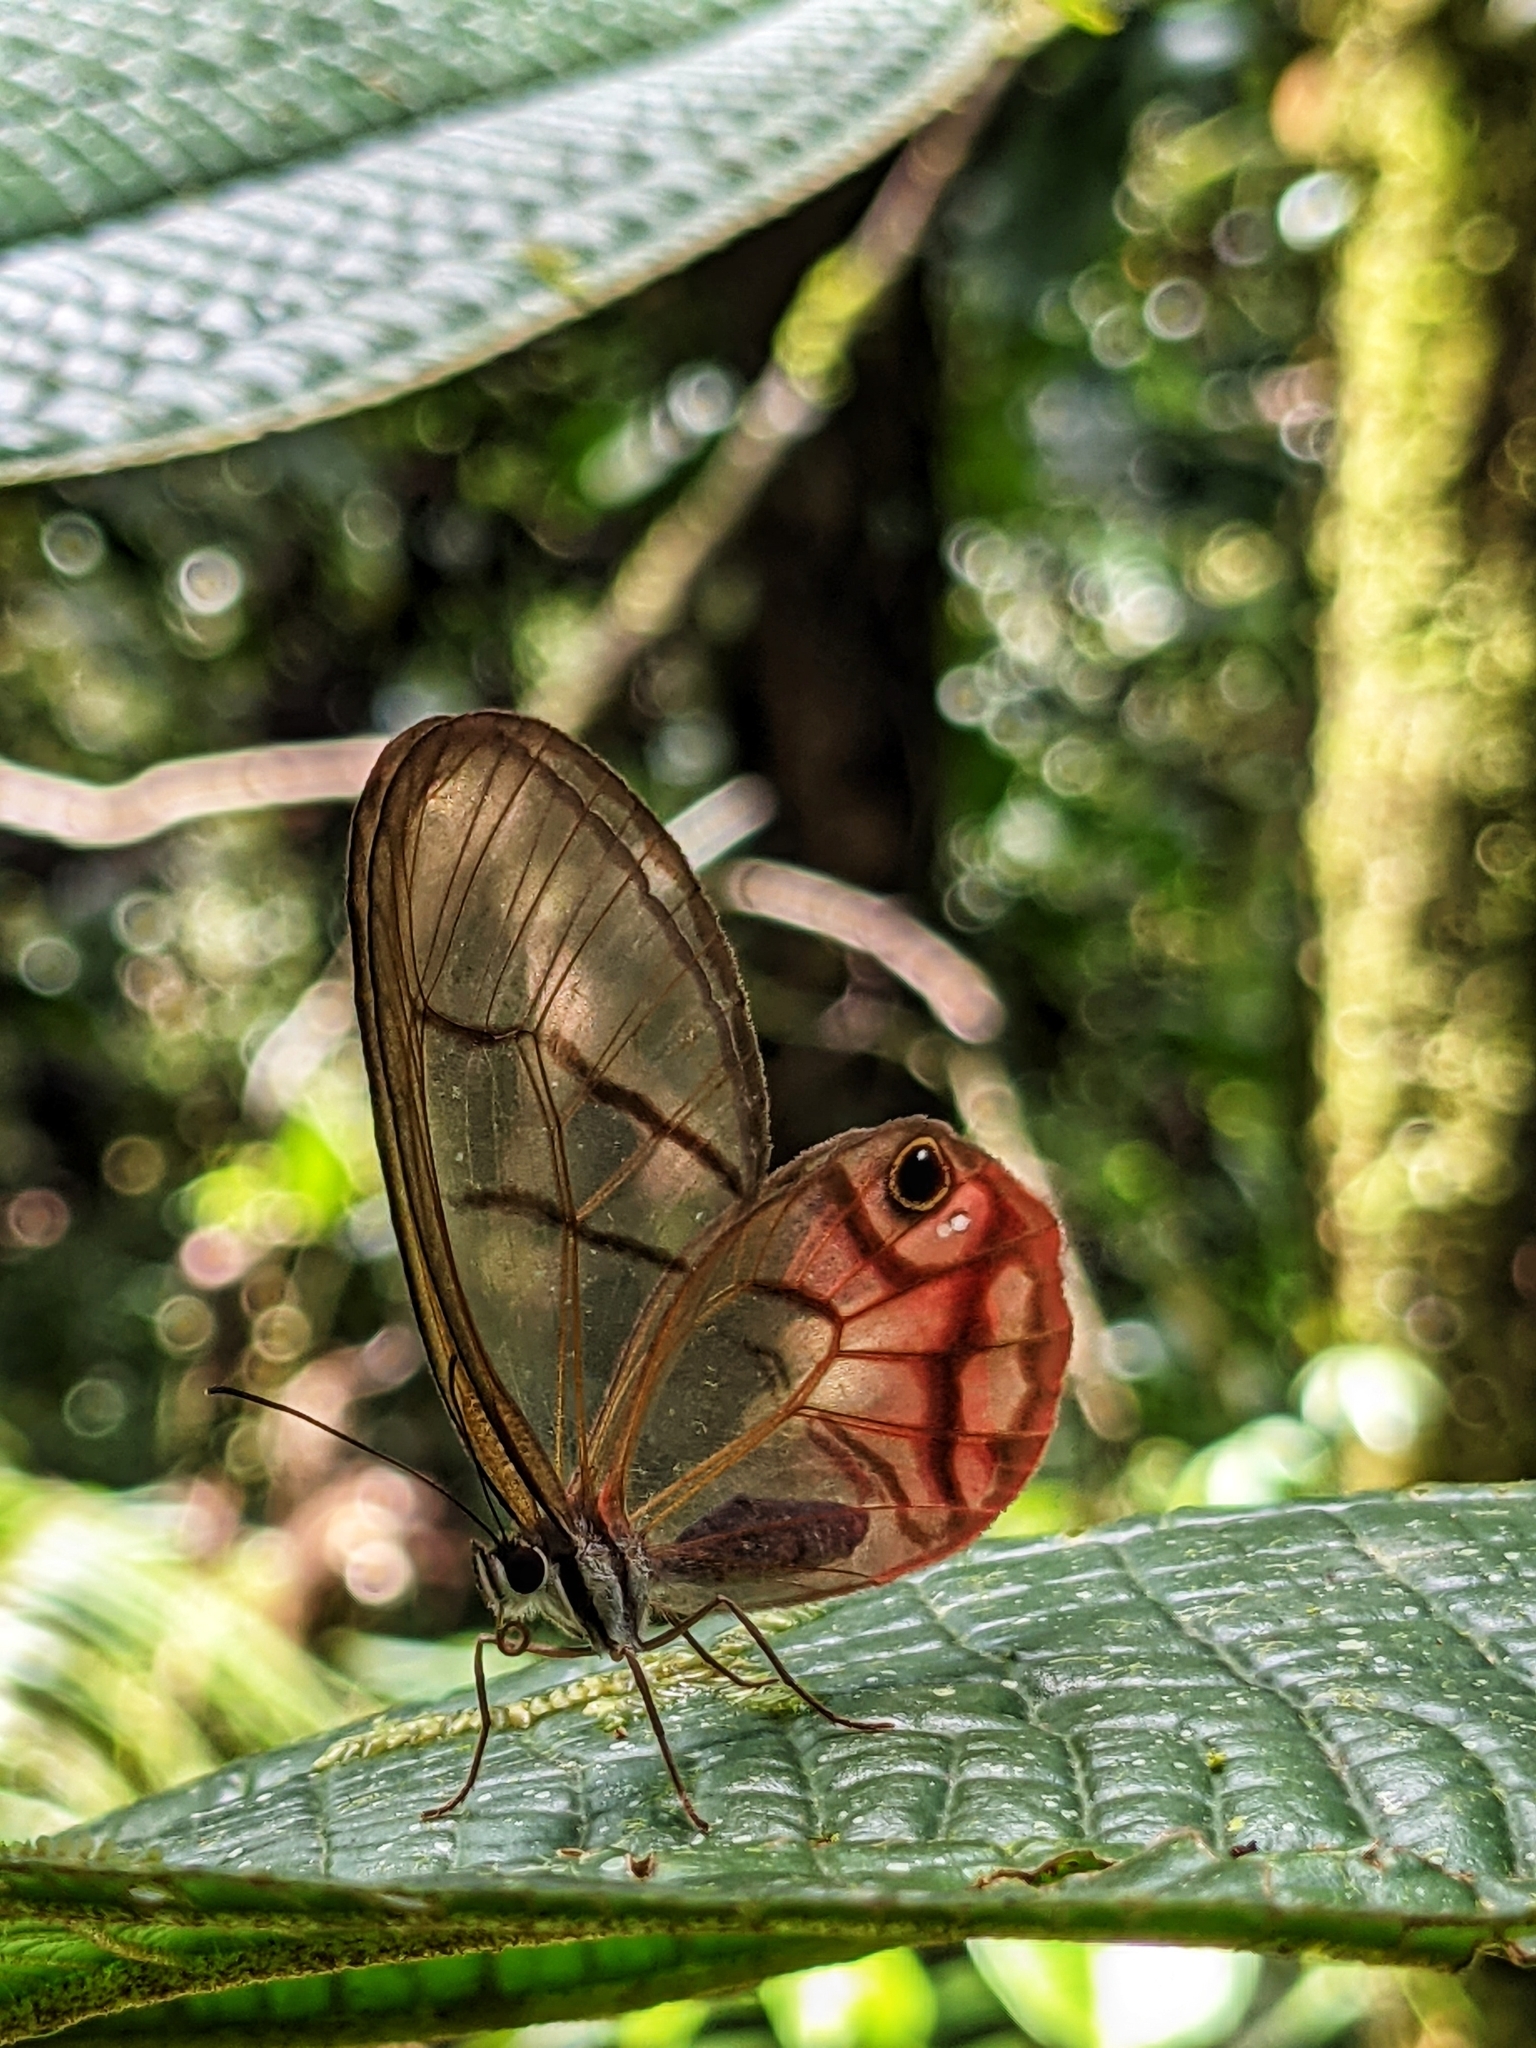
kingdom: Animalia
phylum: Arthropoda
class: Insecta
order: Lepidoptera
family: Nymphalidae
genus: Cithaerias
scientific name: Cithaerias pireta
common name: Rusted clearwing-satyr
